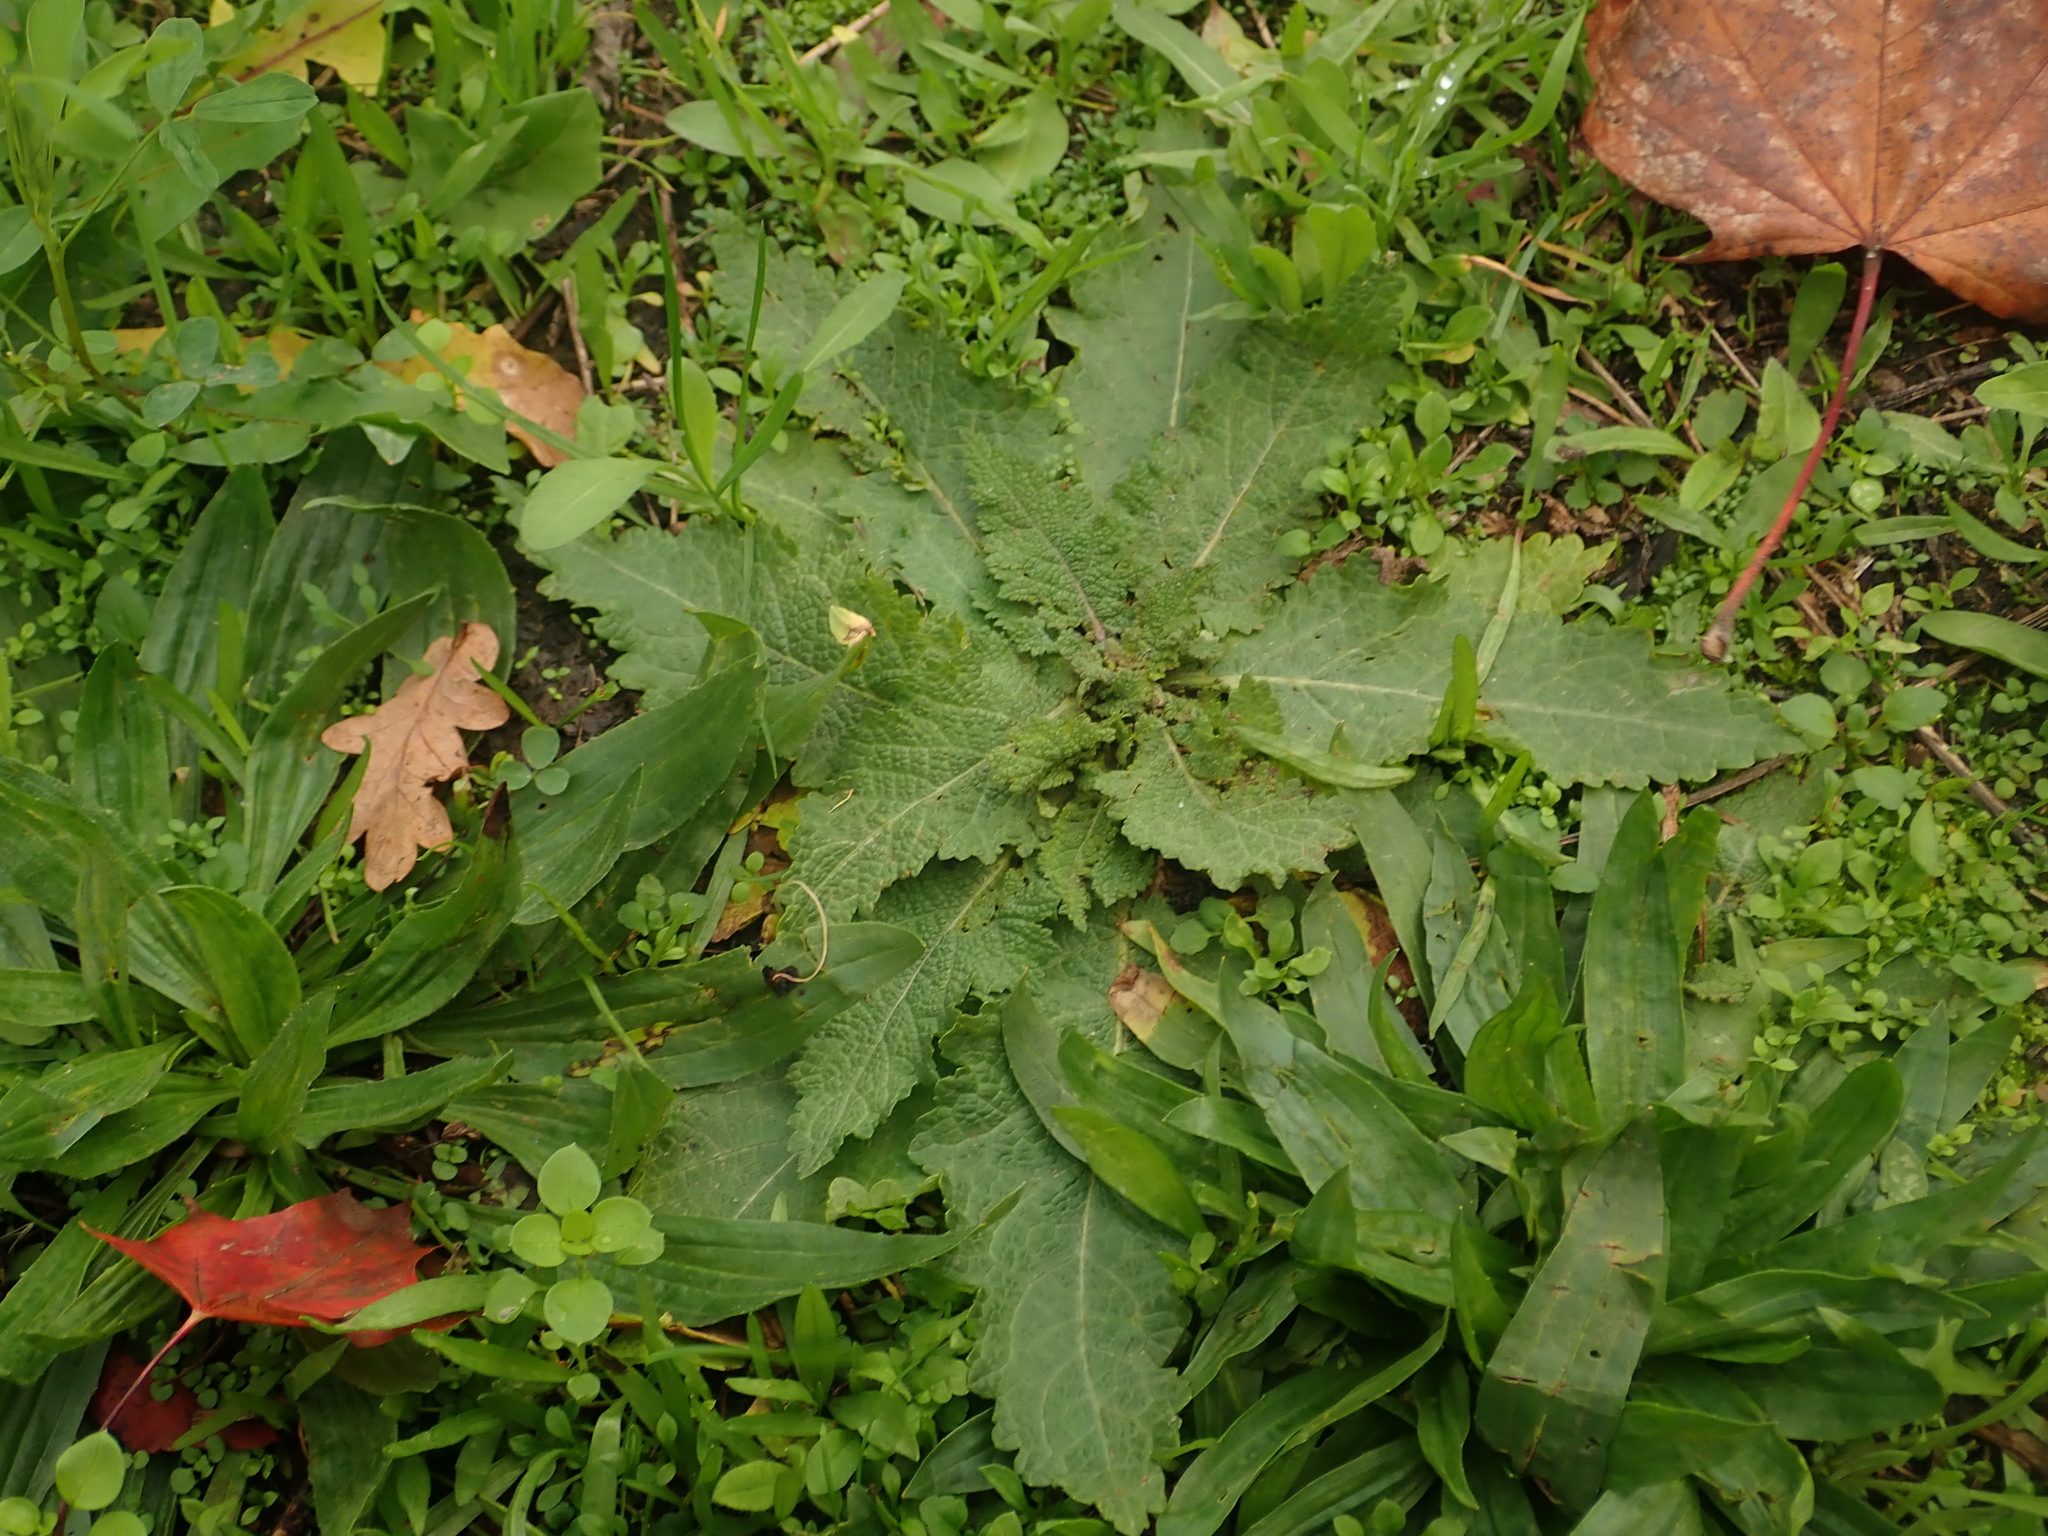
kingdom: Plantae
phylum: Tracheophyta
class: Magnoliopsida
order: Lamiales
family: Lamiaceae
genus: Salvia
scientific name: Salvia pratensis
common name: Meadow sage
